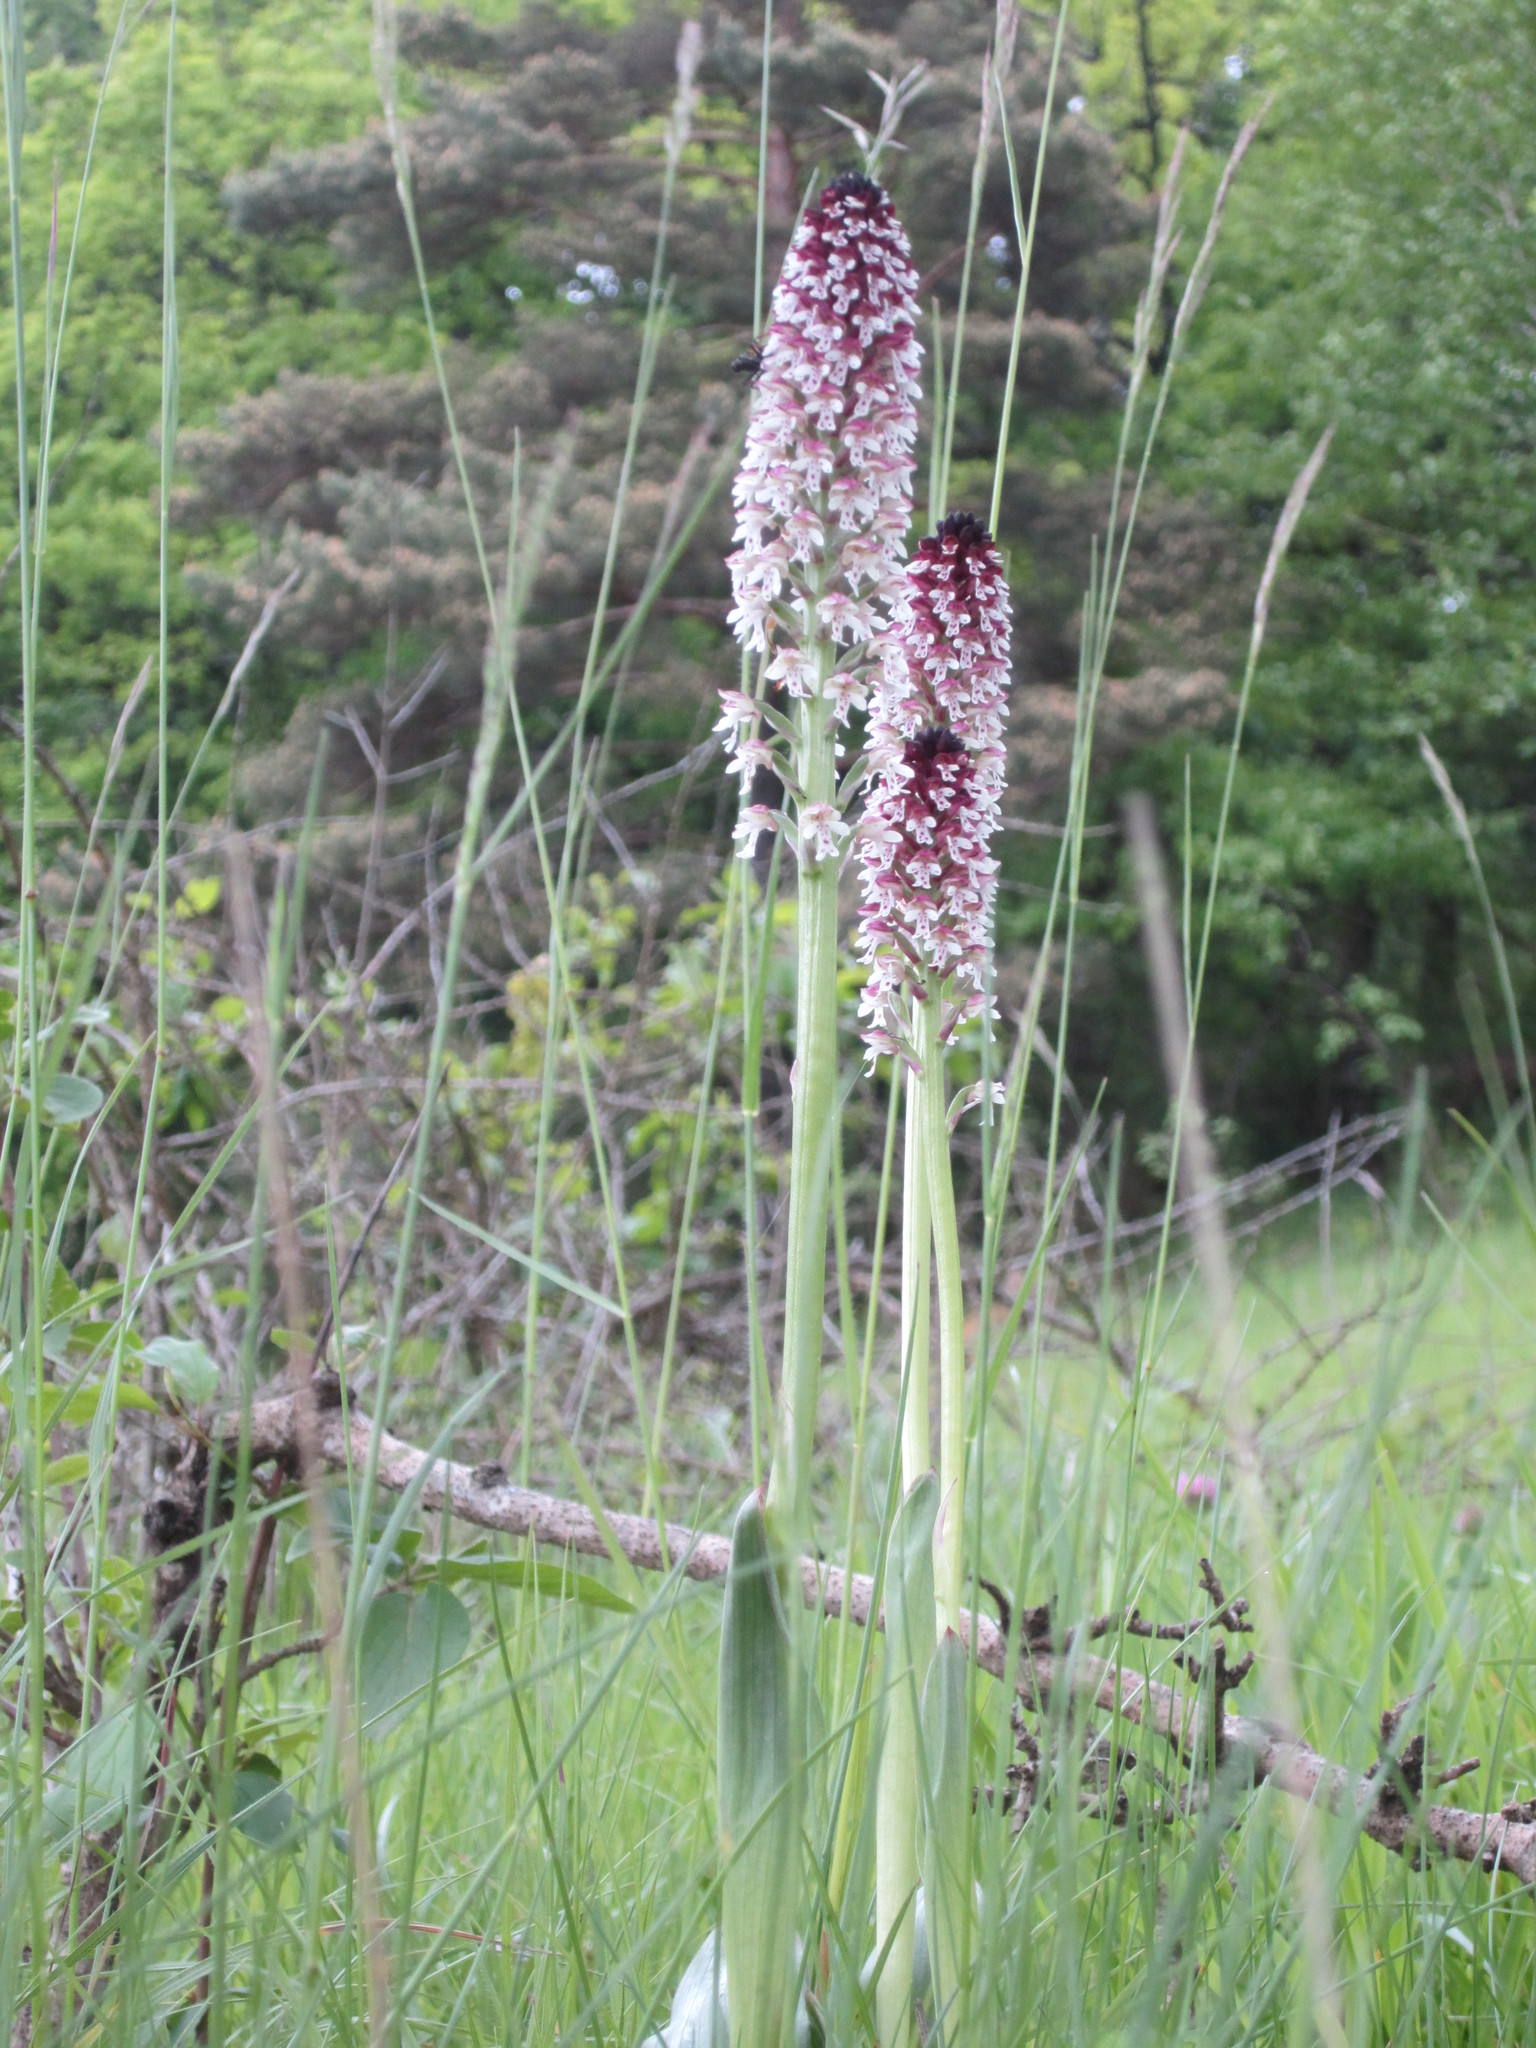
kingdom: Plantae
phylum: Tracheophyta
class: Liliopsida
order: Asparagales
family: Orchidaceae
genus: Neotinea
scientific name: Neotinea ustulata
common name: Burnt orchid
